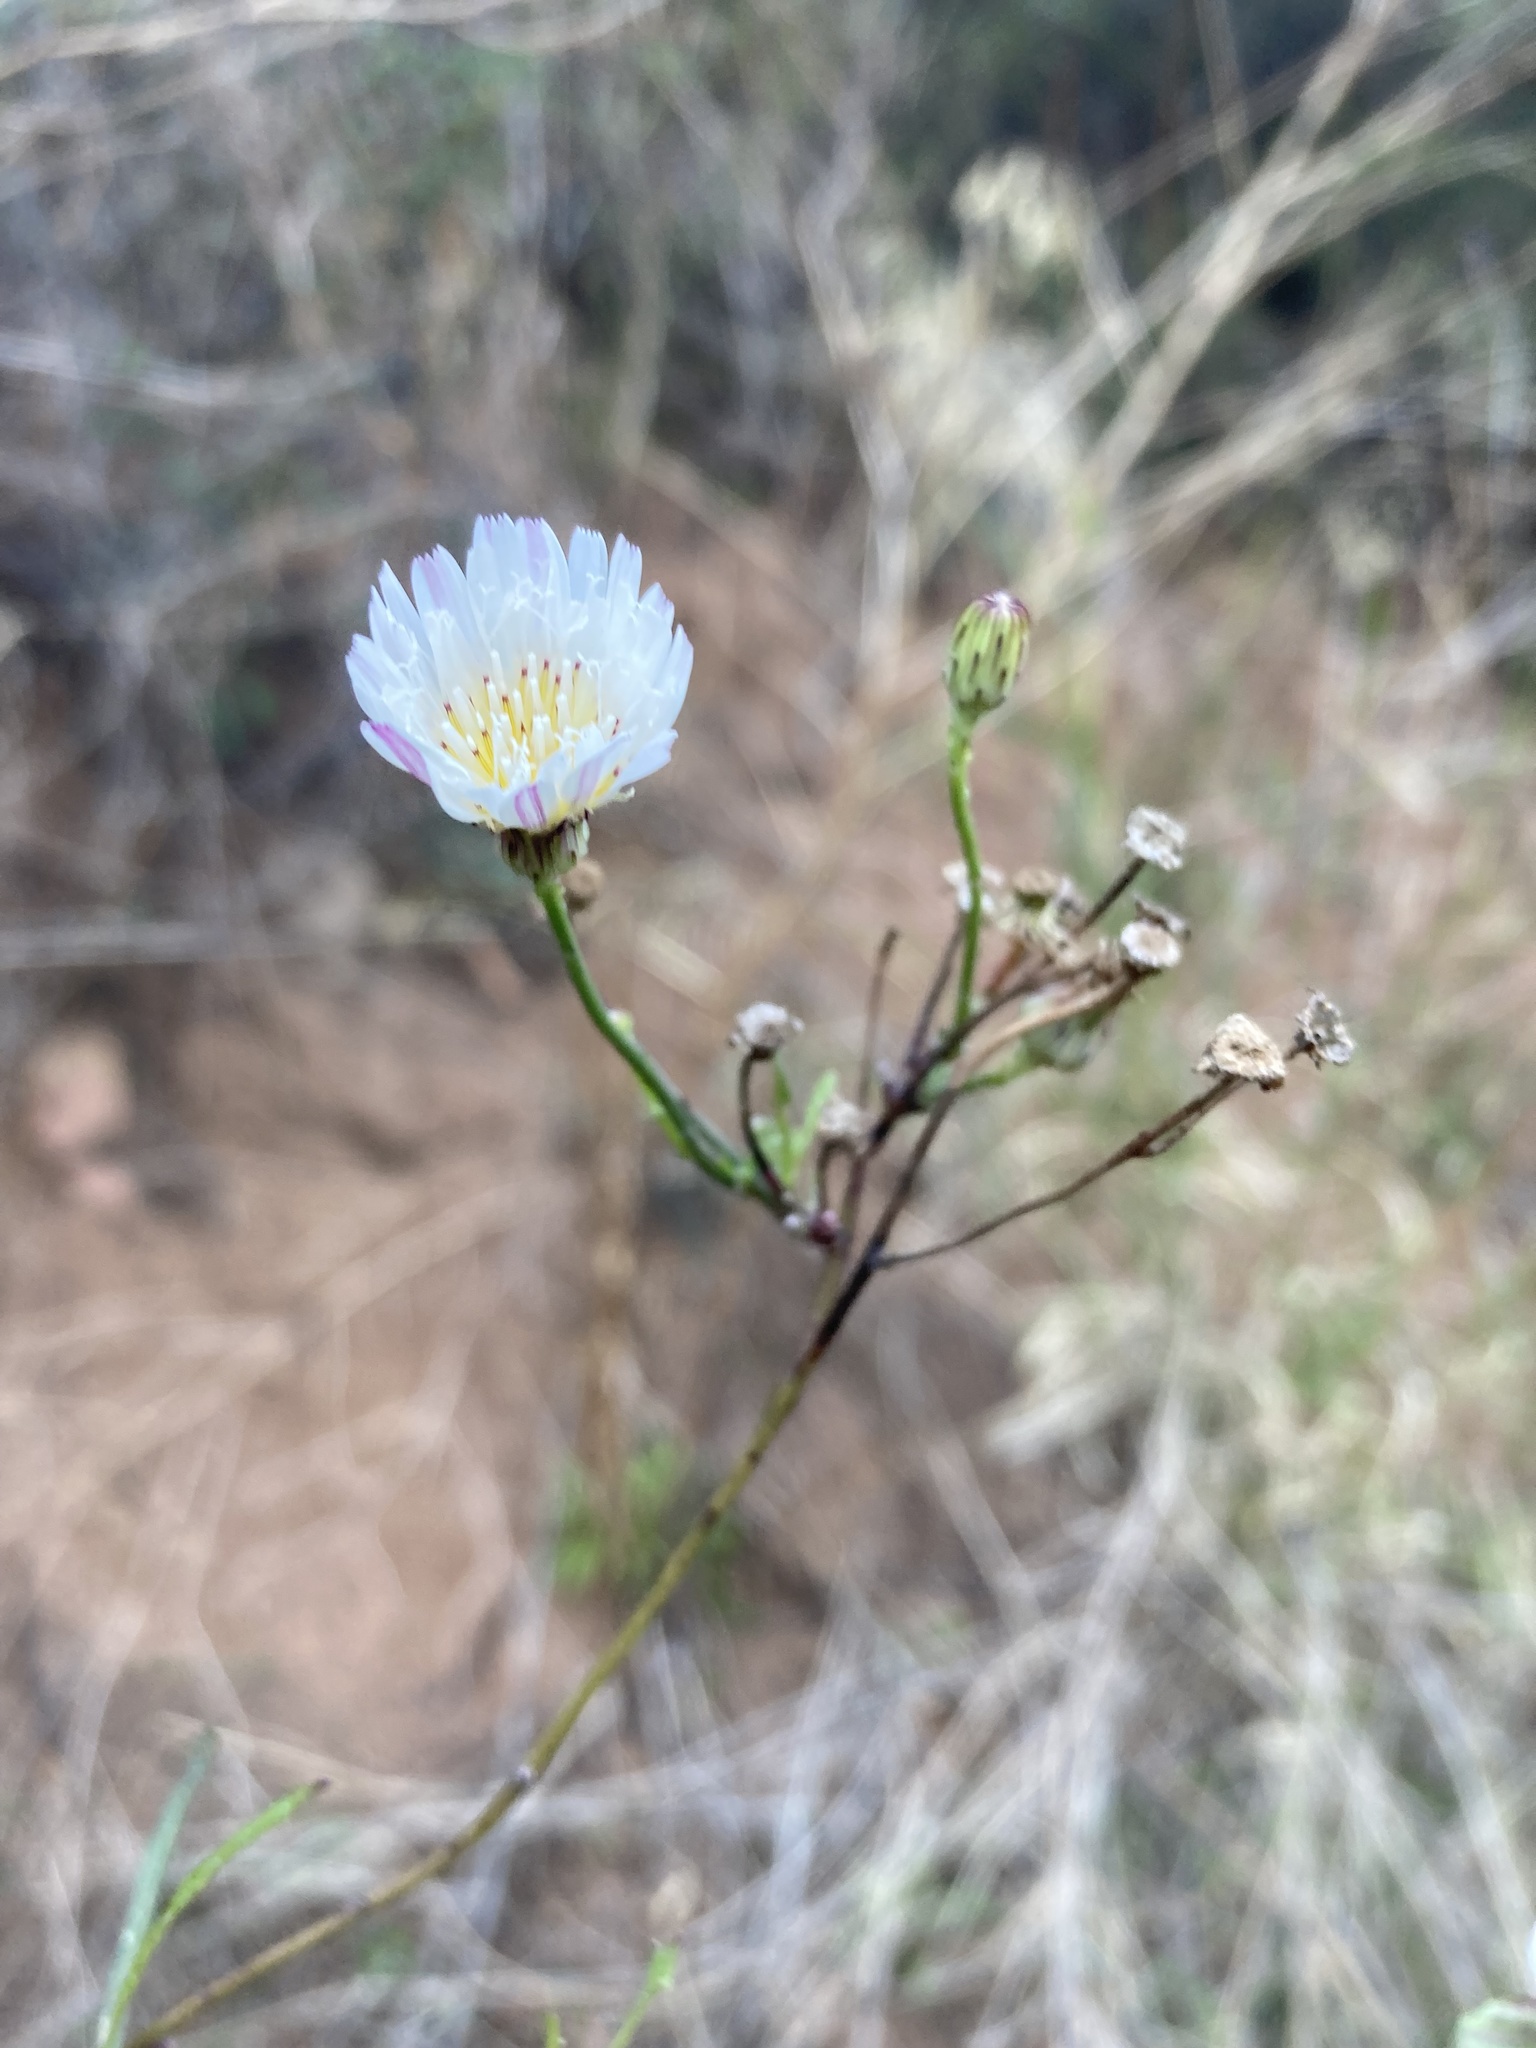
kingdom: Plantae
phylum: Tracheophyta
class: Magnoliopsida
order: Asterales
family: Asteraceae
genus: Malacothrix
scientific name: Malacothrix saxatilis
